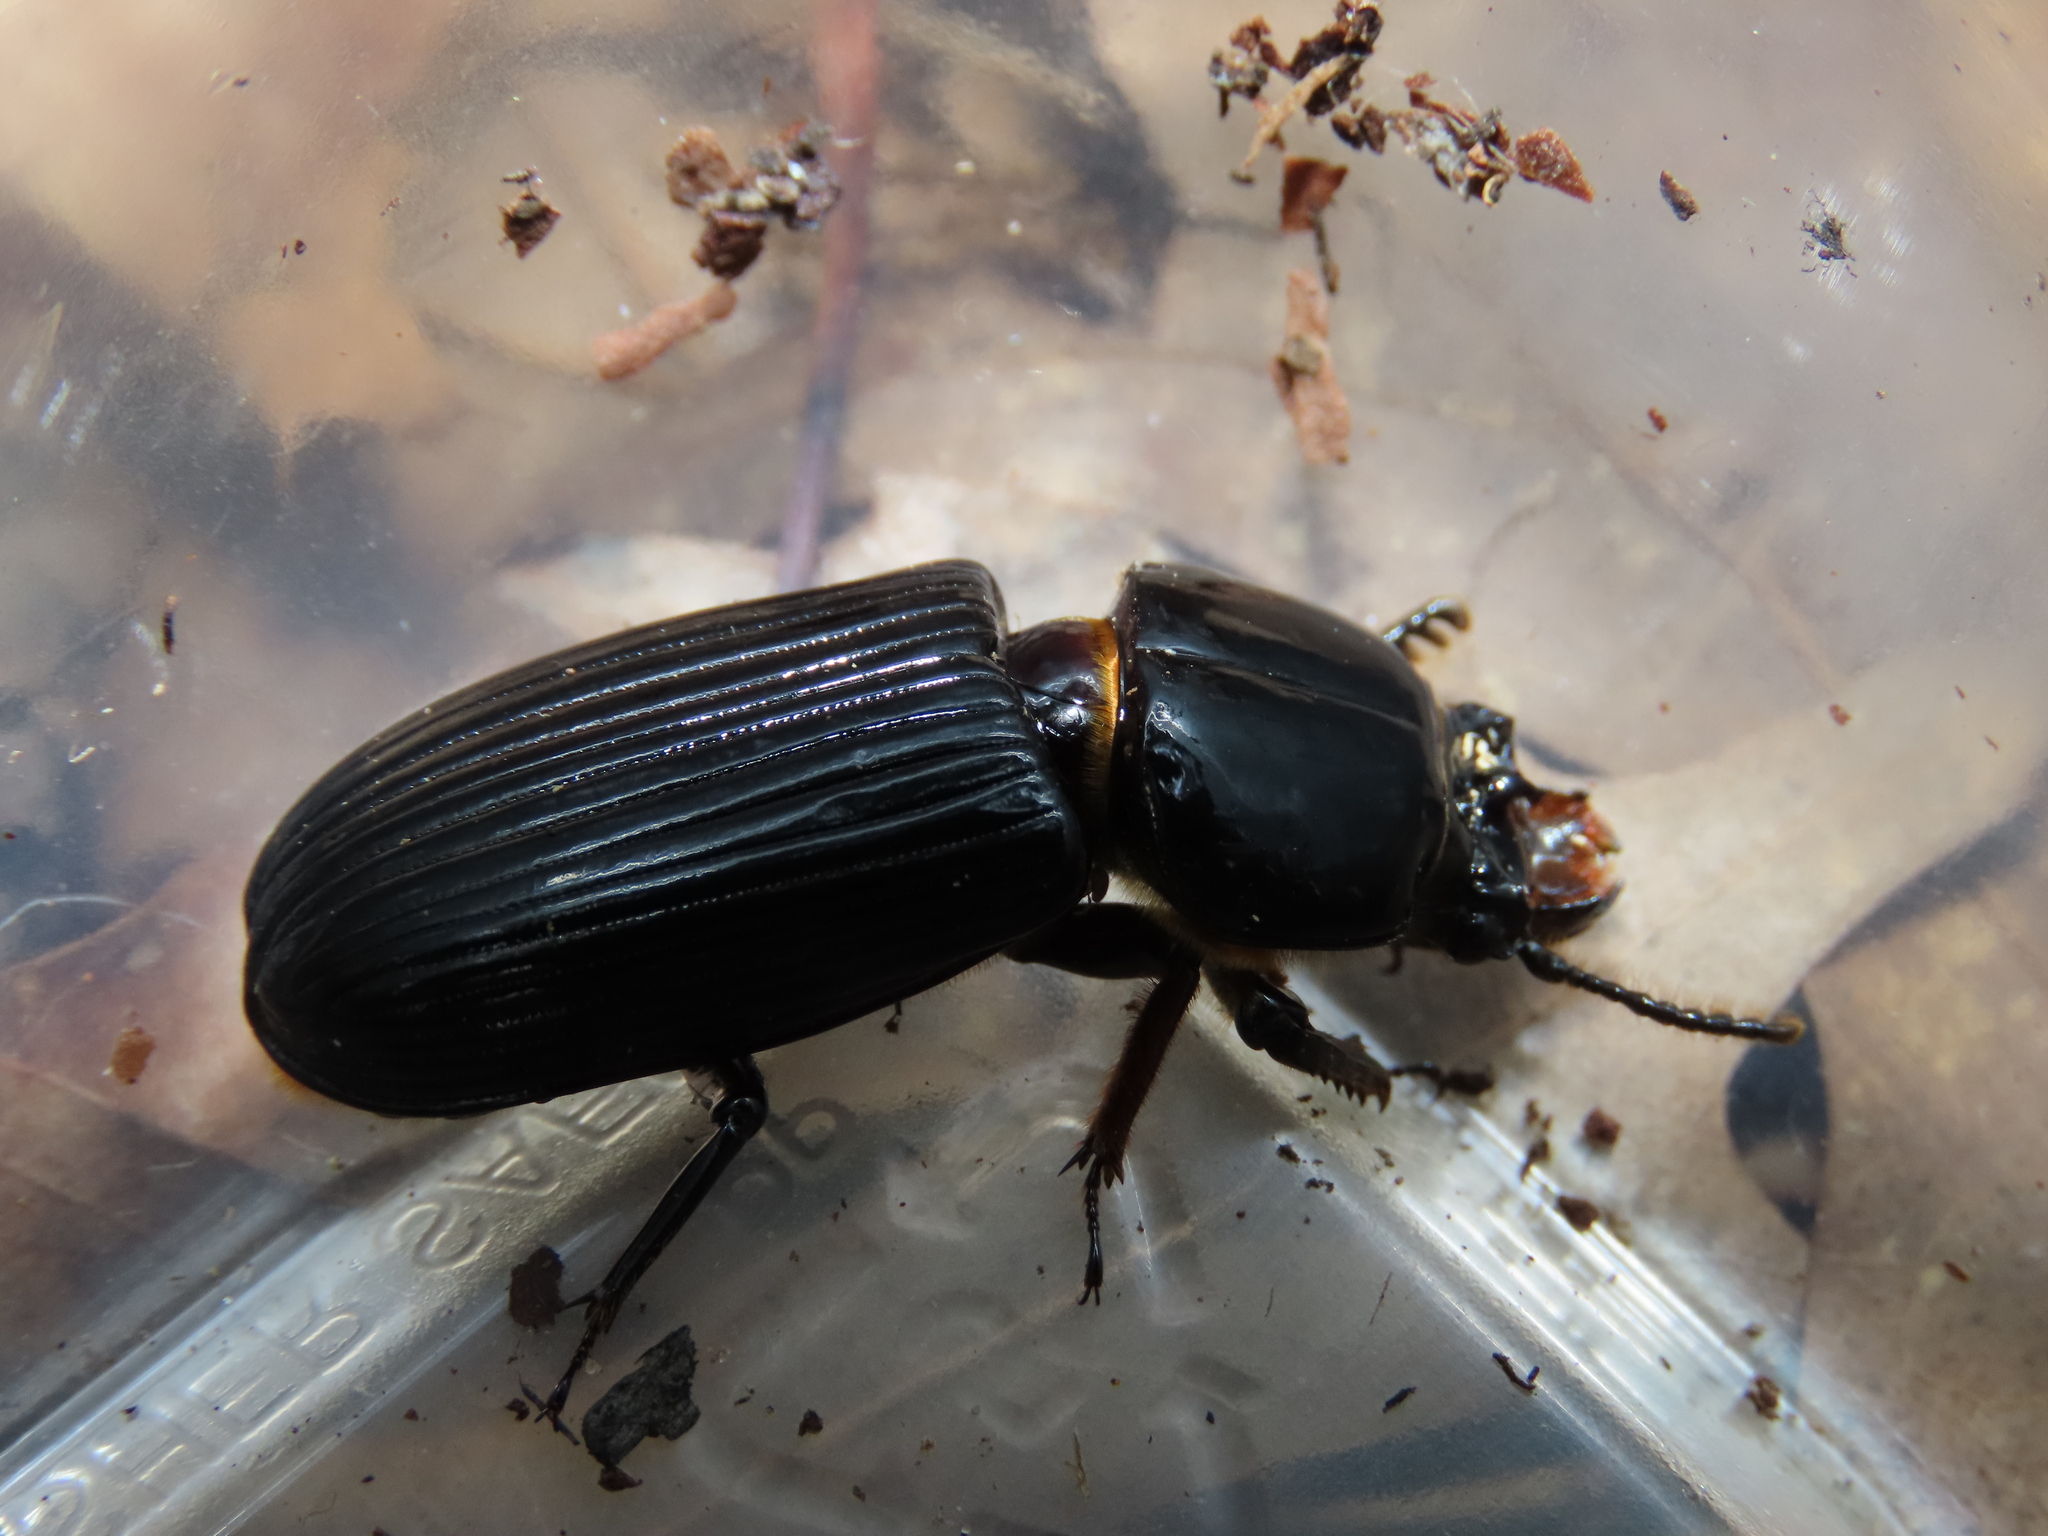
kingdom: Animalia
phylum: Arthropoda
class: Insecta
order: Coleoptera
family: Passalidae
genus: Odontotaenius
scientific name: Odontotaenius disjunctus
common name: Patent leather beetle
